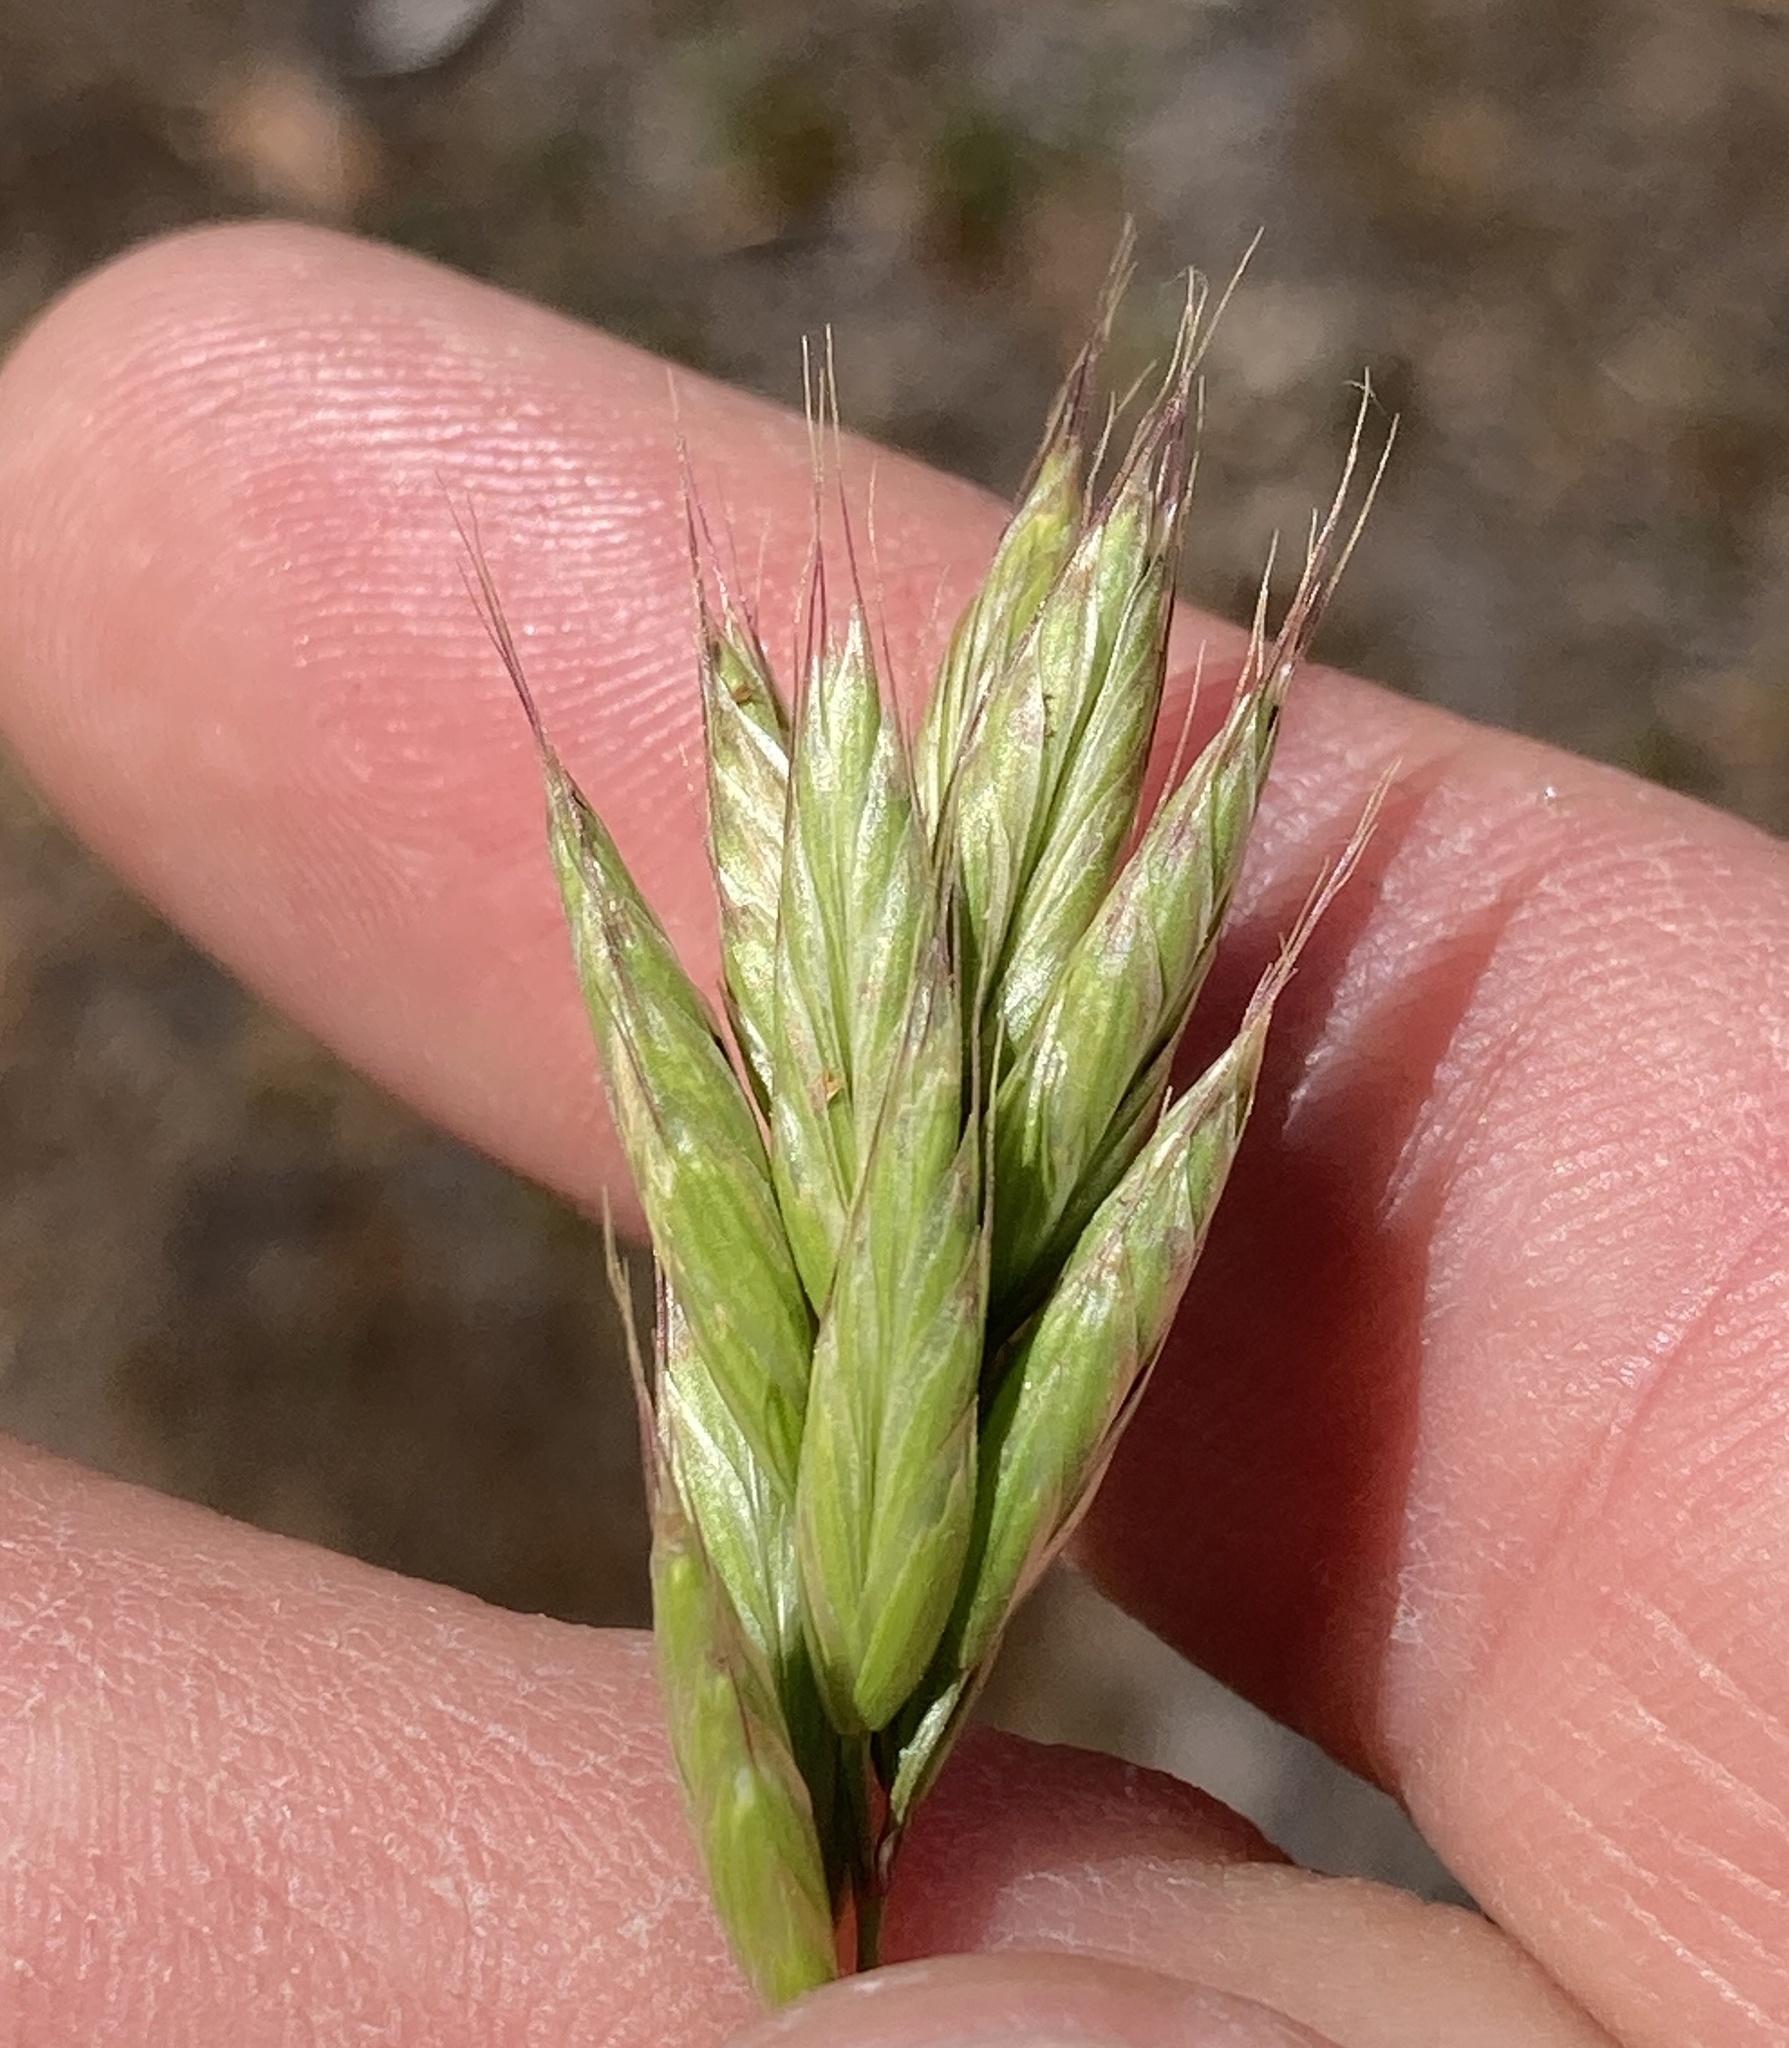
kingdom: Plantae
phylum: Tracheophyta
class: Liliopsida
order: Poales
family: Poaceae
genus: Bromus
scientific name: Bromus hordeaceus
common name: Soft brome
